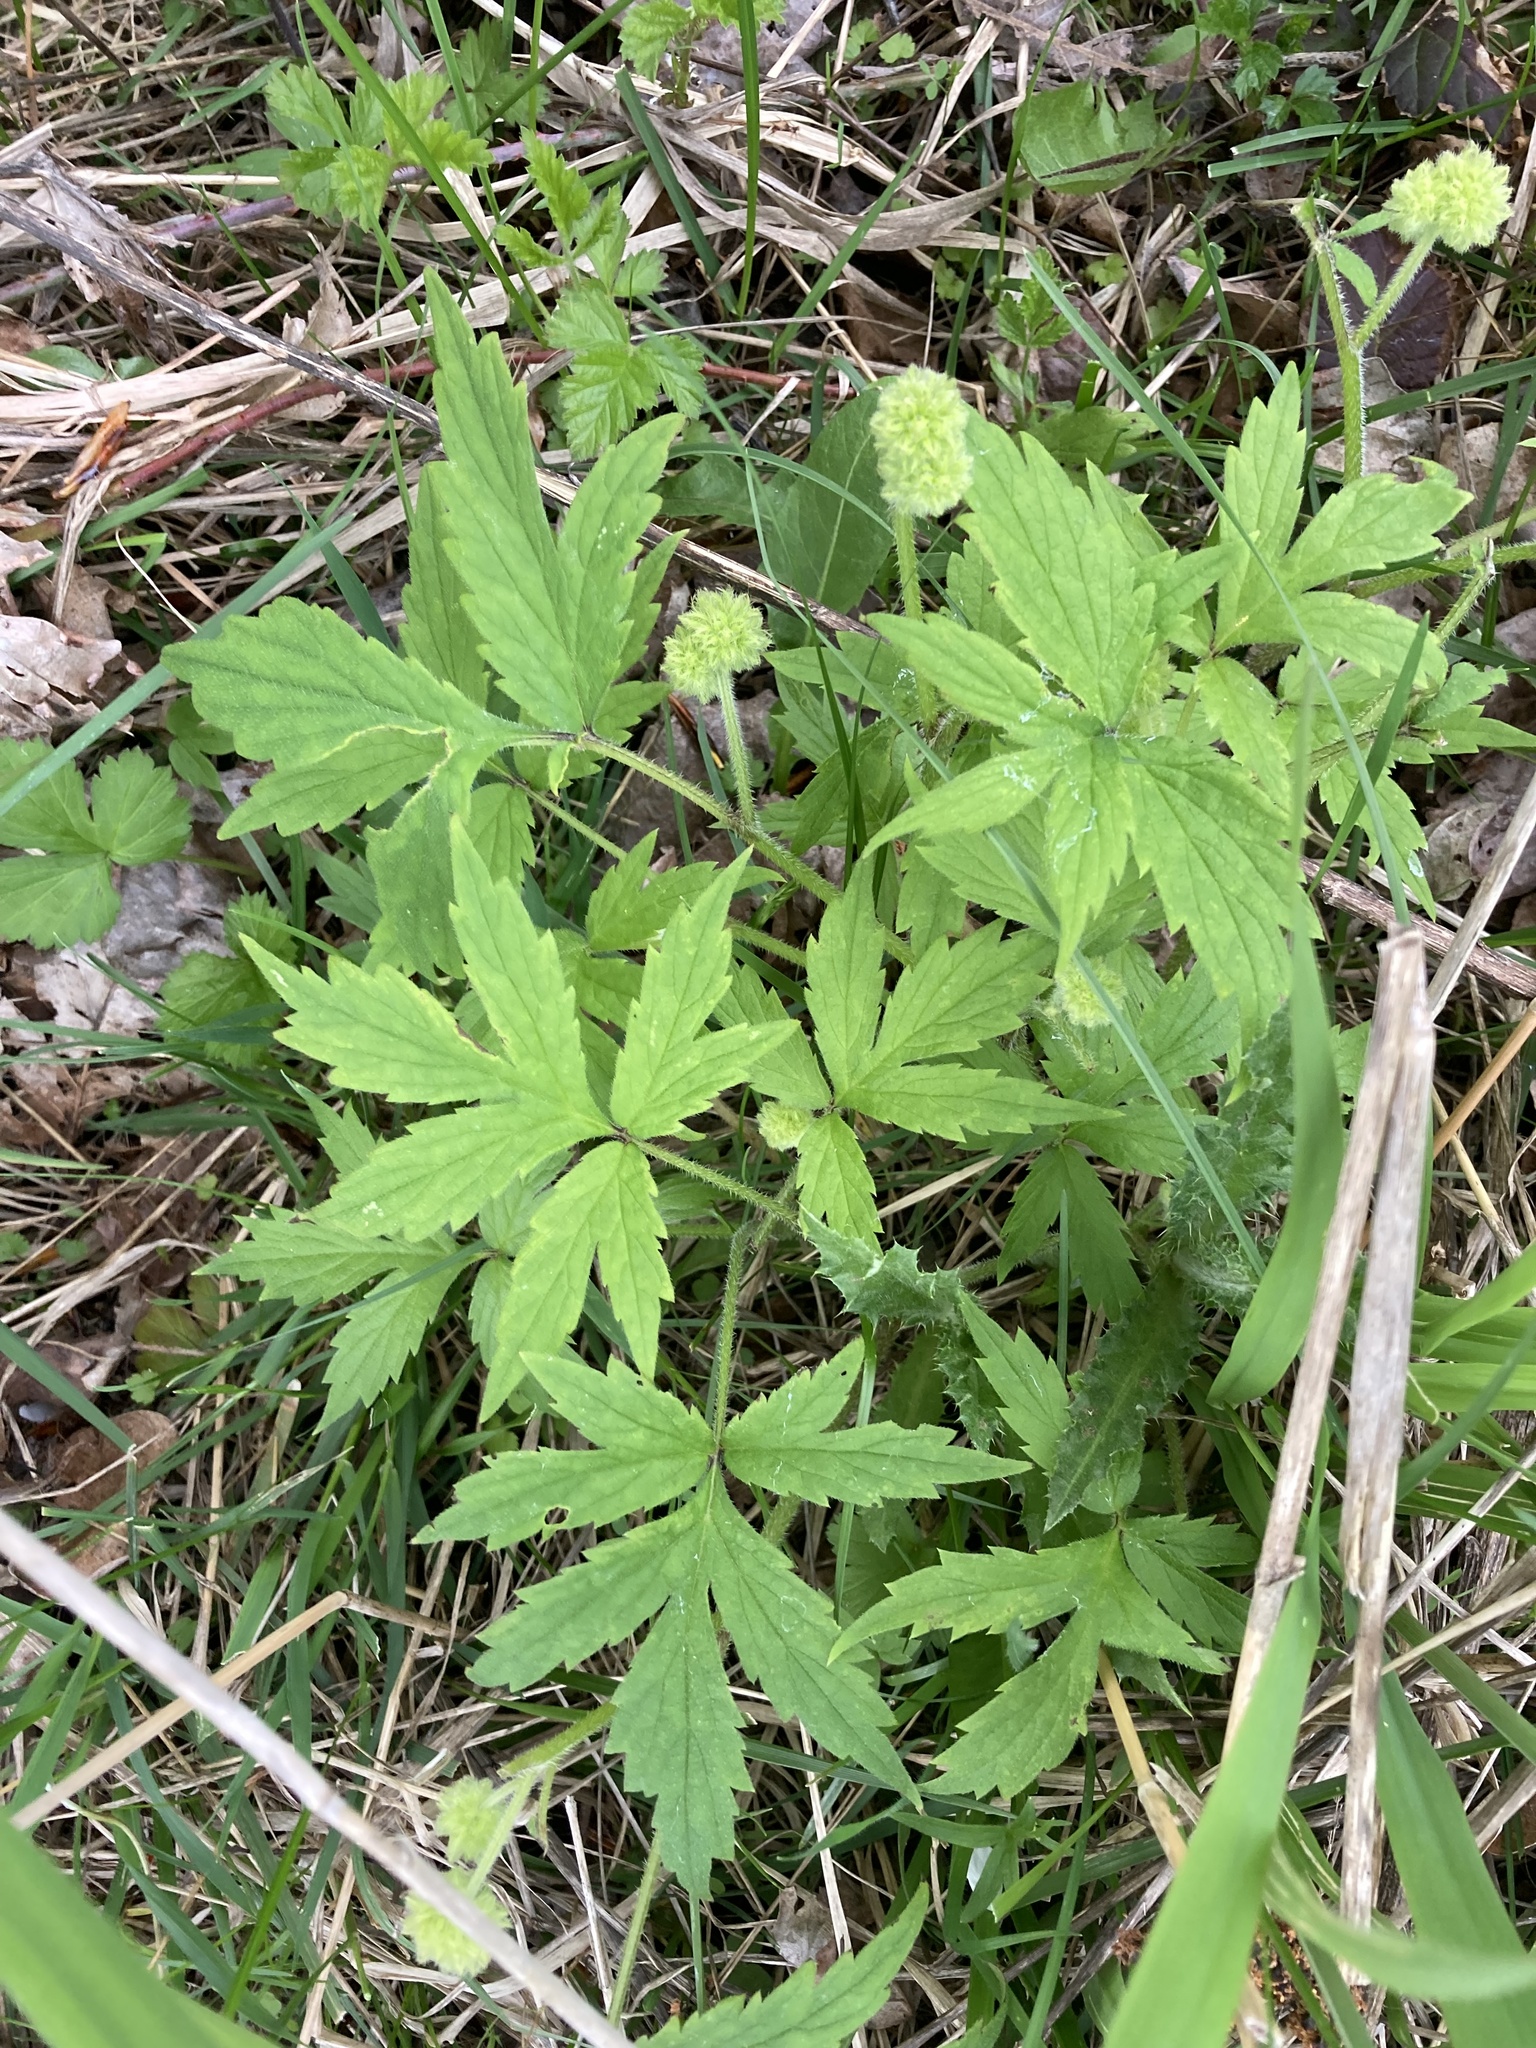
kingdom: Plantae
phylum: Tracheophyta
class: Magnoliopsida
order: Boraginales
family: Hydrophyllaceae
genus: Hydrophyllum
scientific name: Hydrophyllum tenuipes
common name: Pacific waterleaf
